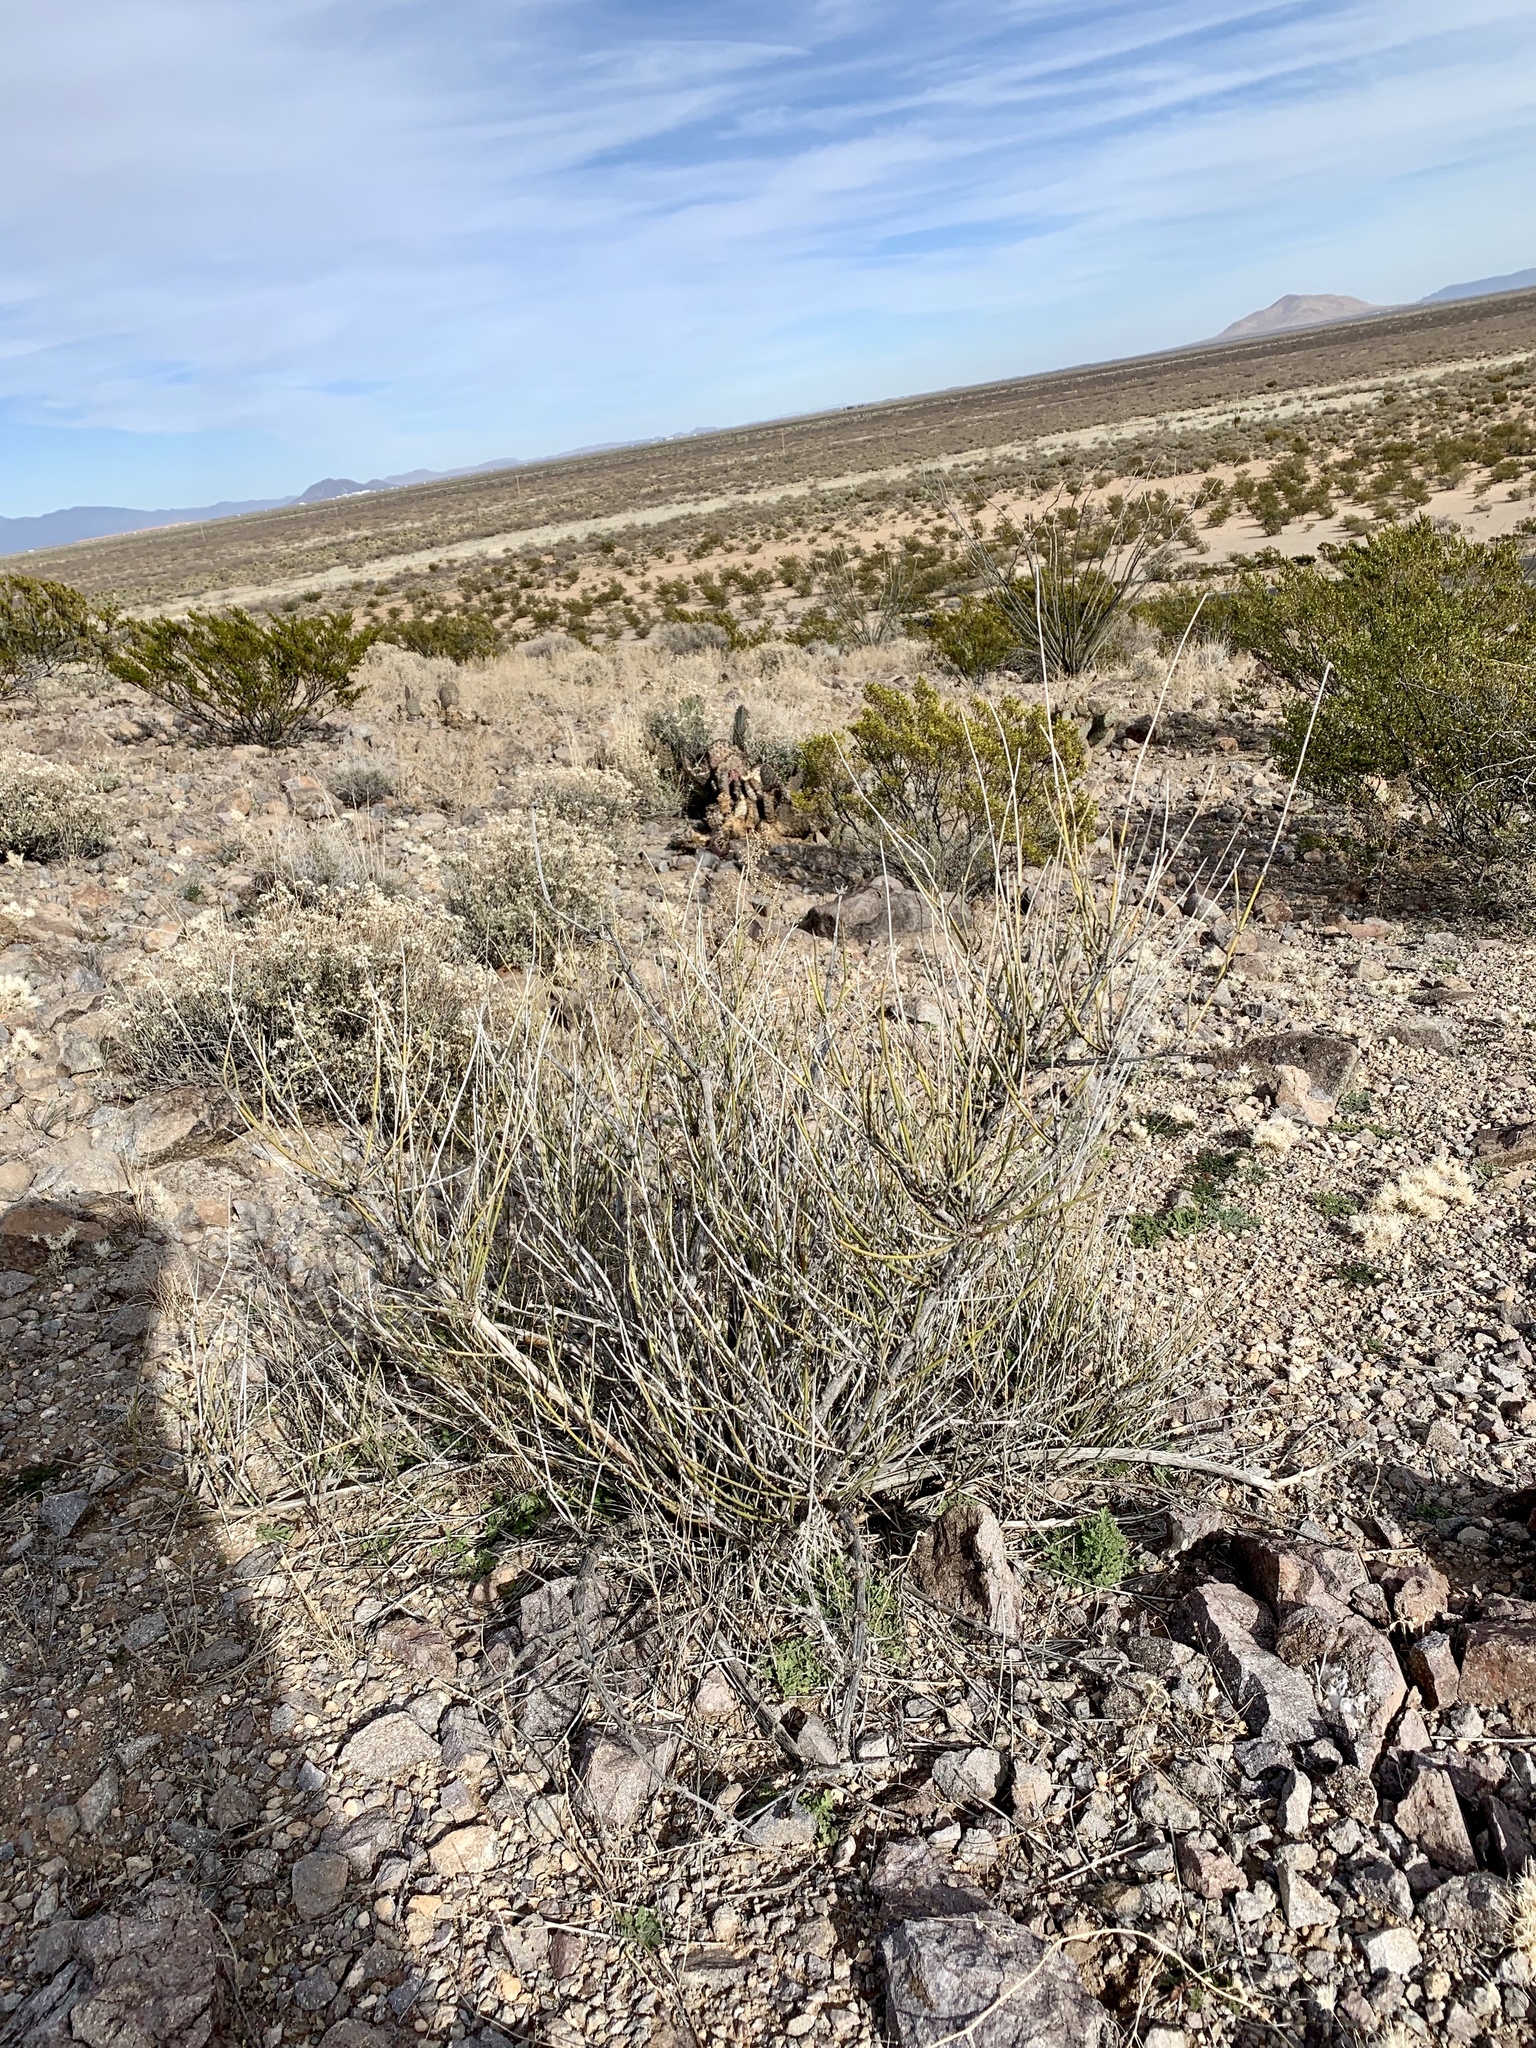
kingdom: Plantae
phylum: Tracheophyta
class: Gnetopsida
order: Ephedrales
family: Ephedraceae
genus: Ephedra
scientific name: Ephedra trifurca
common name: Mexican-tea
